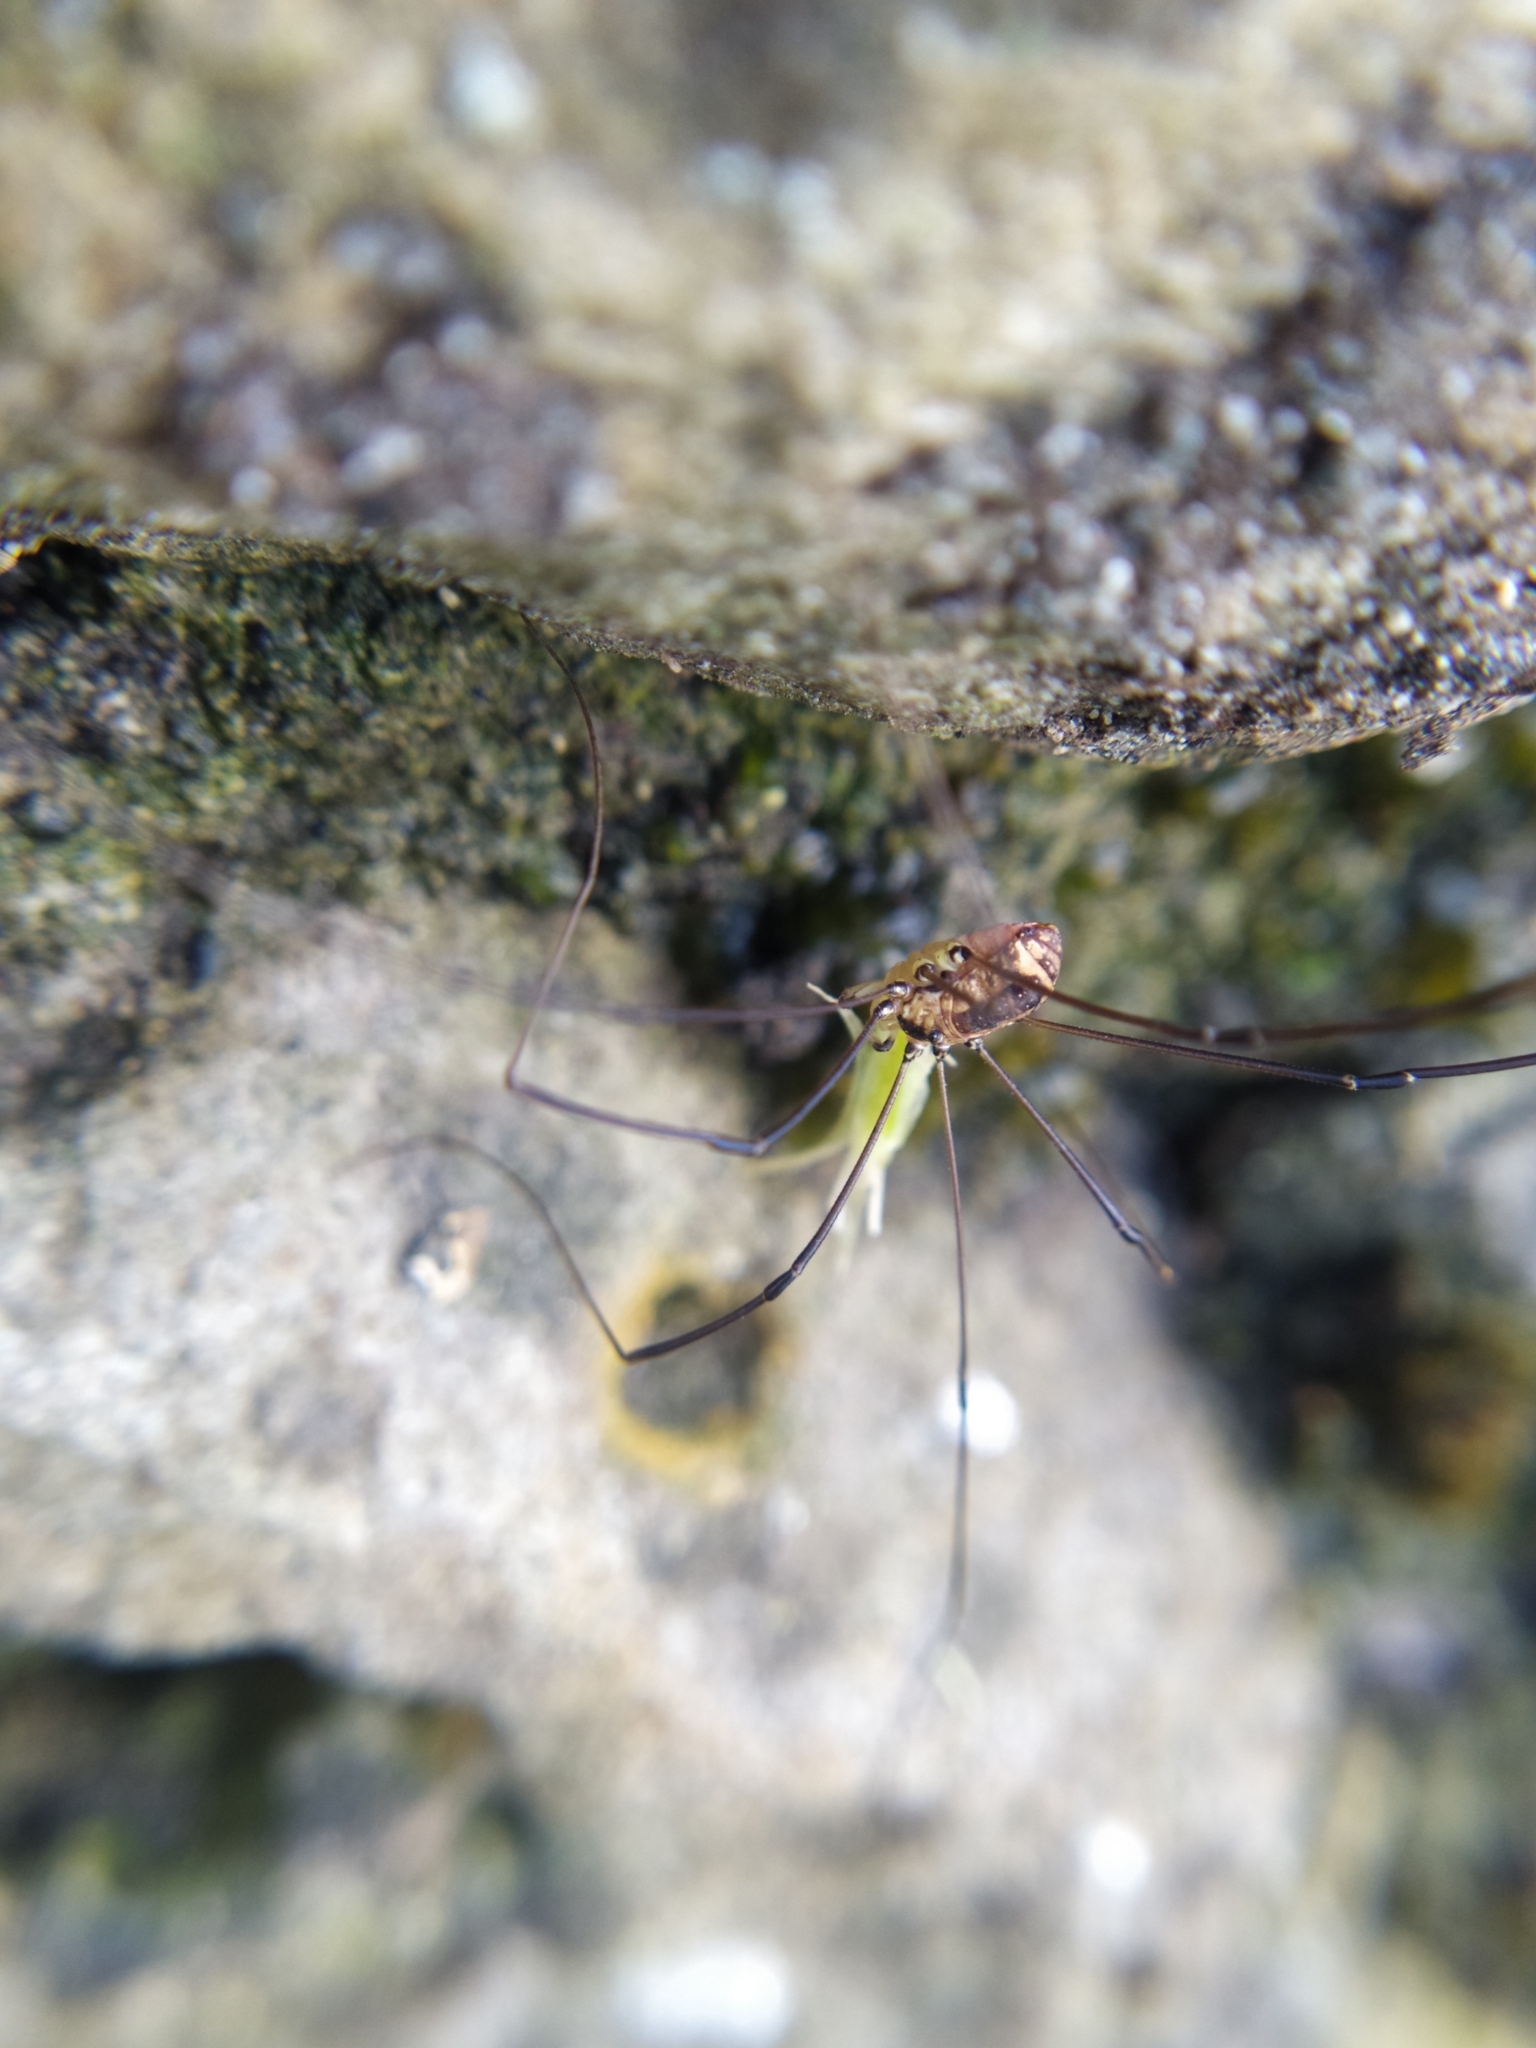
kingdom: Animalia
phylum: Arthropoda
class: Arachnida
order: Opiliones
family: Sclerosomatidae
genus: Leiobunum
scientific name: Leiobunum rotundum
